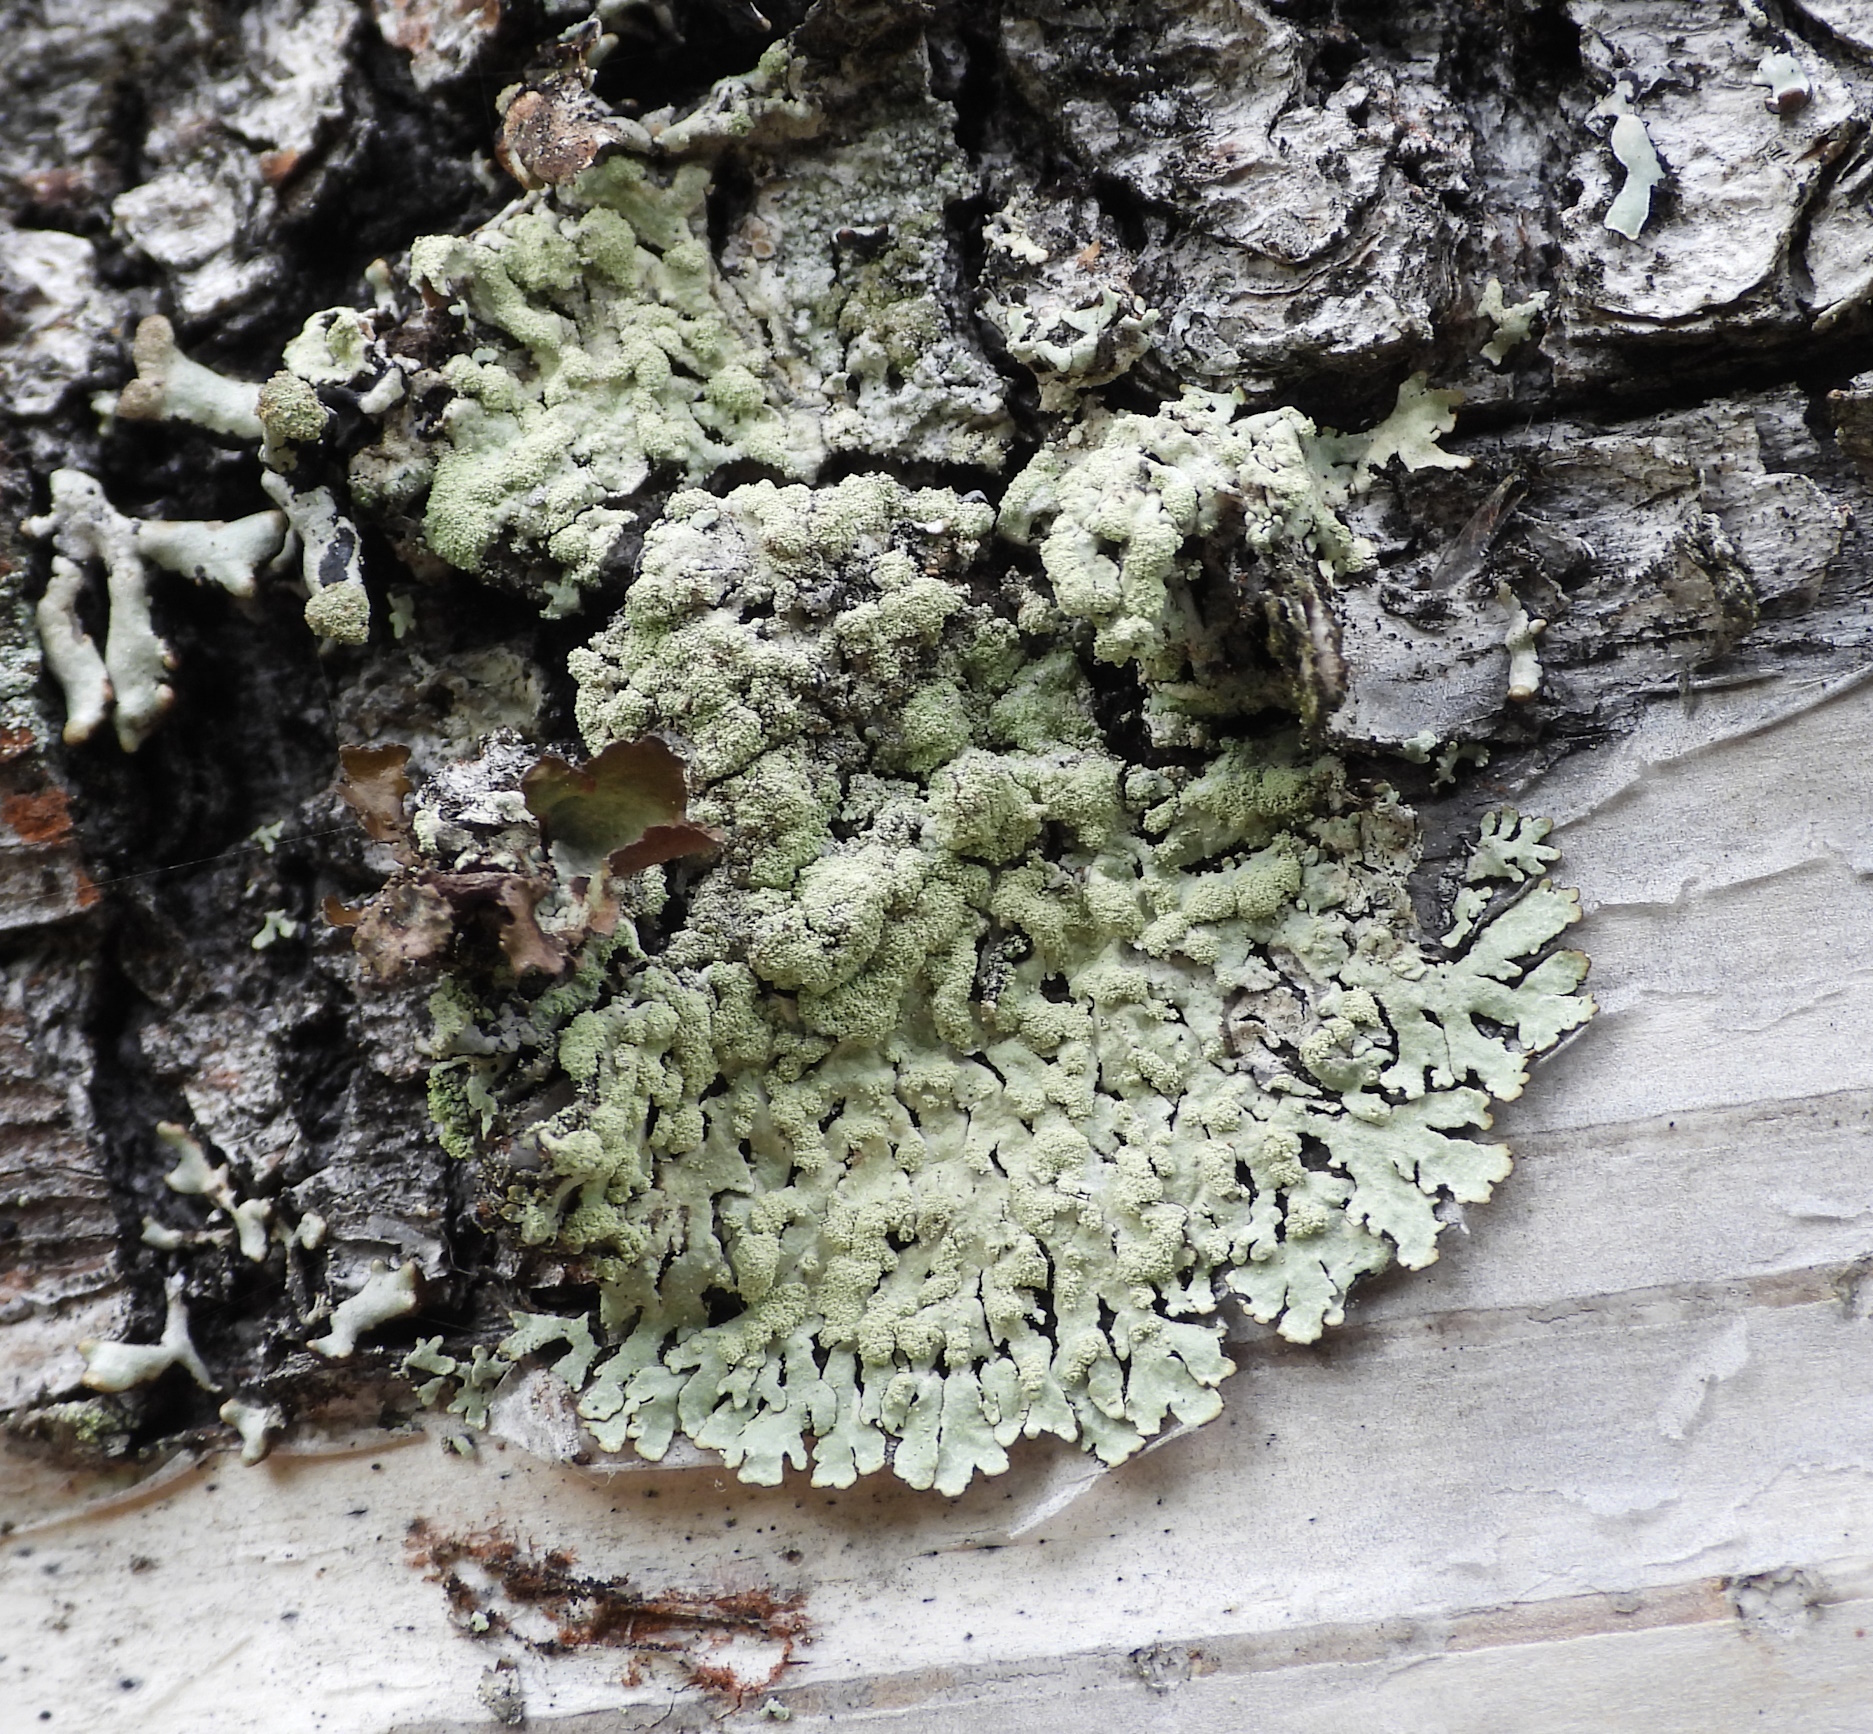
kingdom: Fungi
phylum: Ascomycota
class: Lecanoromycetes
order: Lecanorales
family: Parmeliaceae
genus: Parmeliopsis
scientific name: Parmeliopsis ambigua
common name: Green starburst lichen
